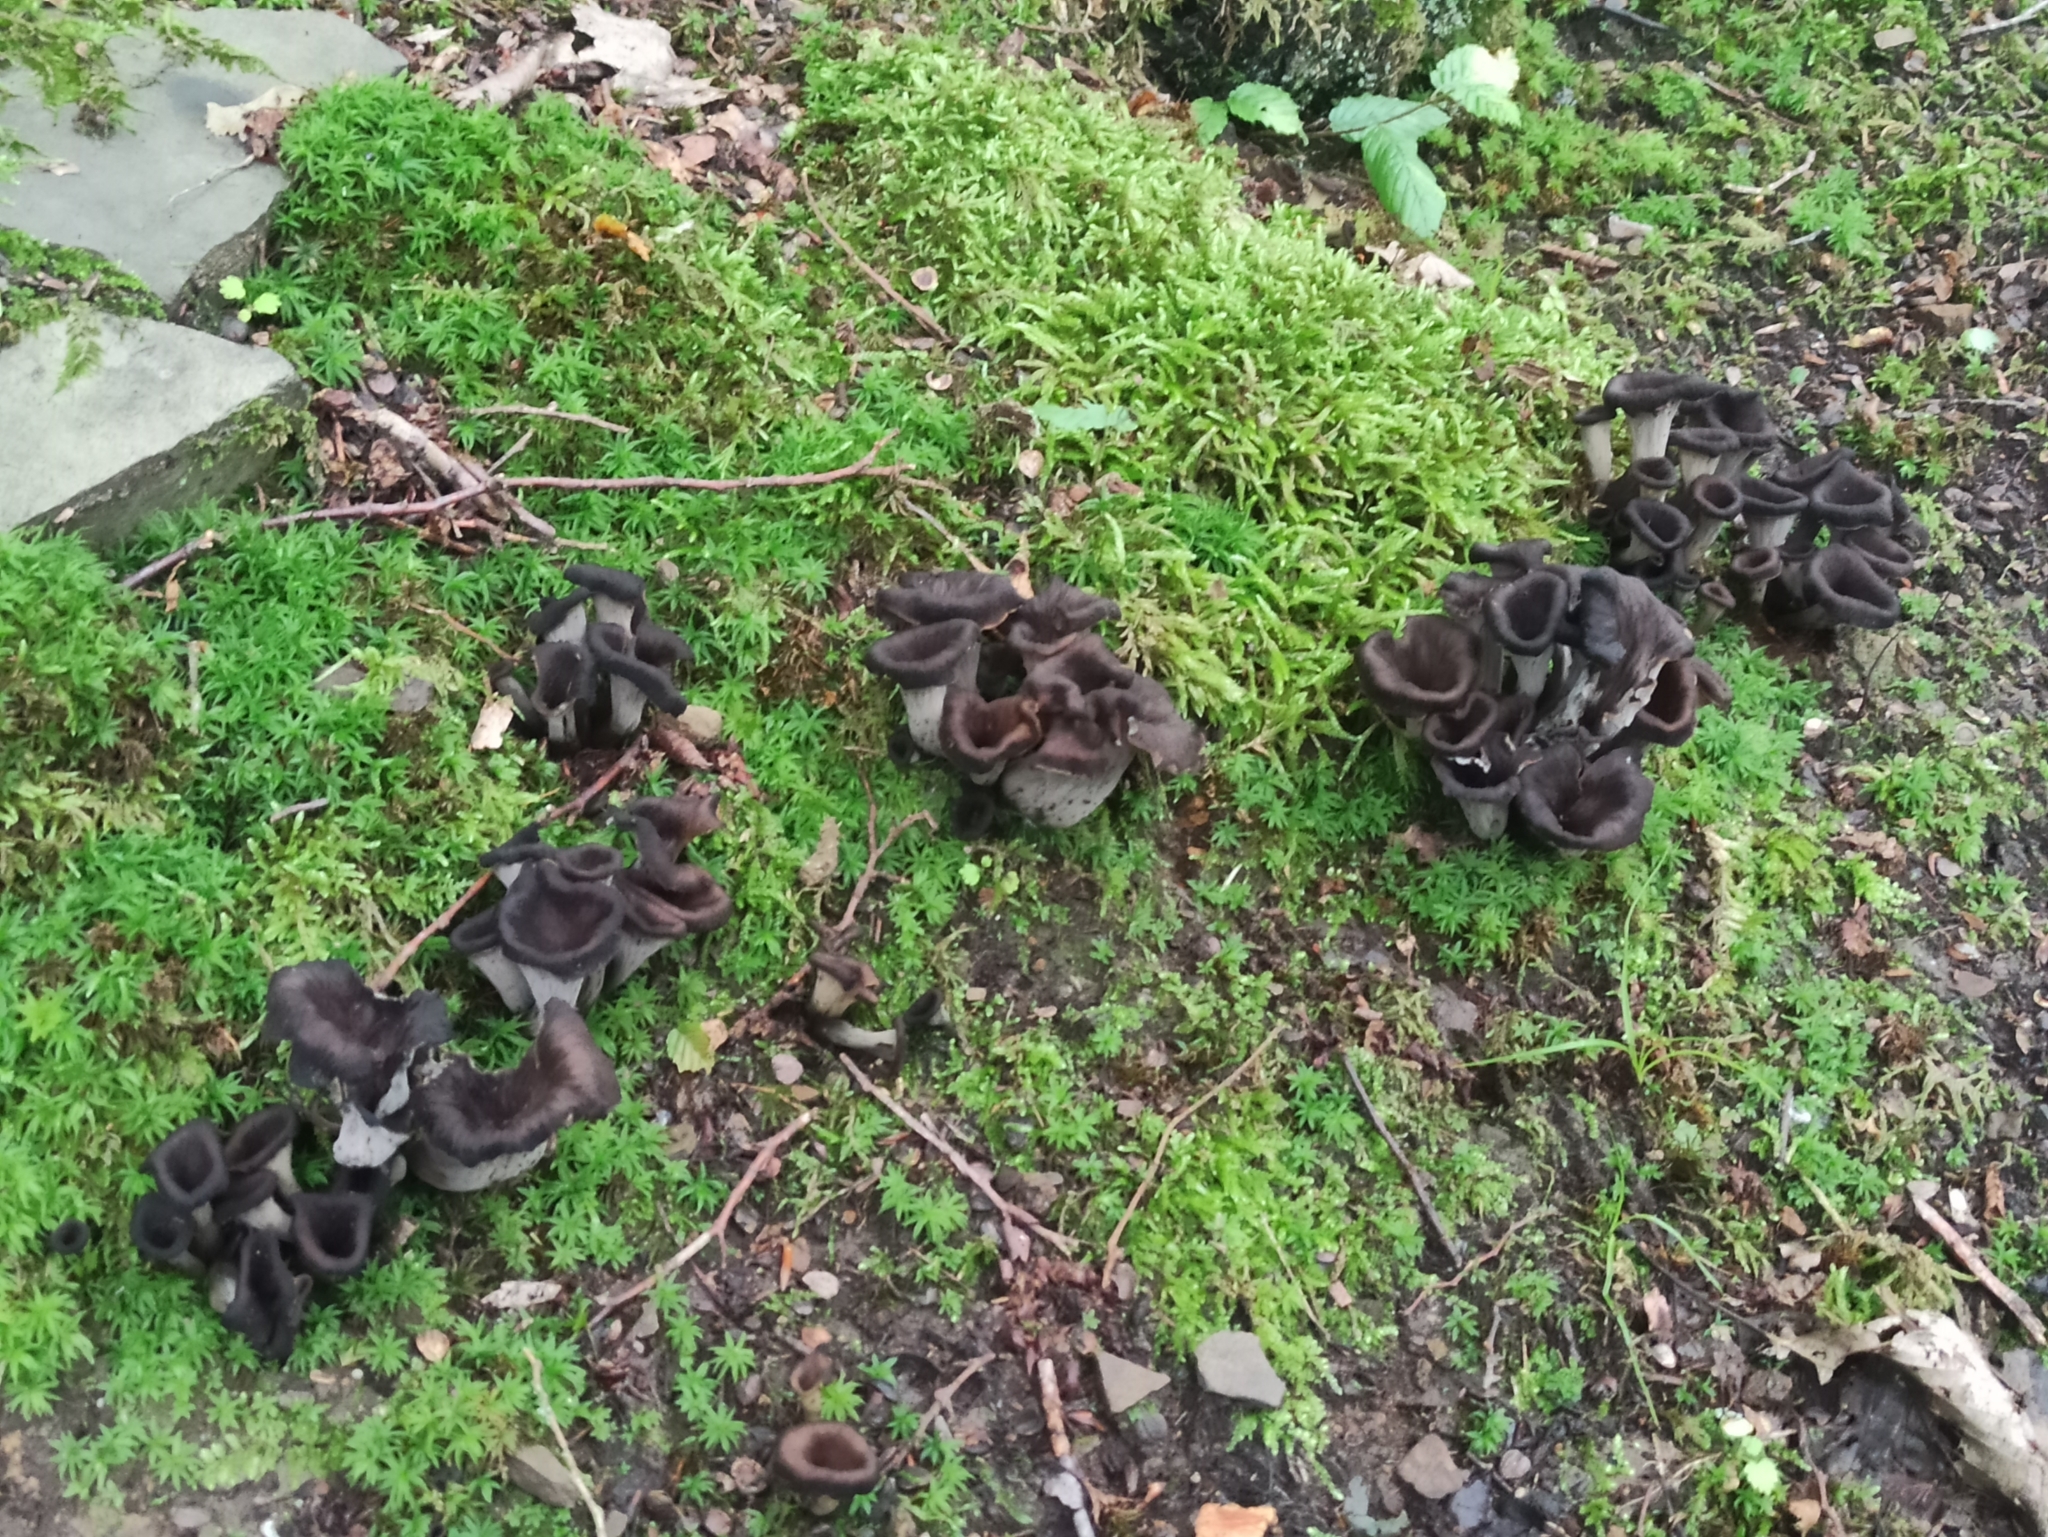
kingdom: Fungi
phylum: Basidiomycota
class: Agaricomycetes
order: Cantharellales
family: Hydnaceae
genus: Craterellus
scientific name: Craterellus cornucopioides
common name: Horn of plenty
